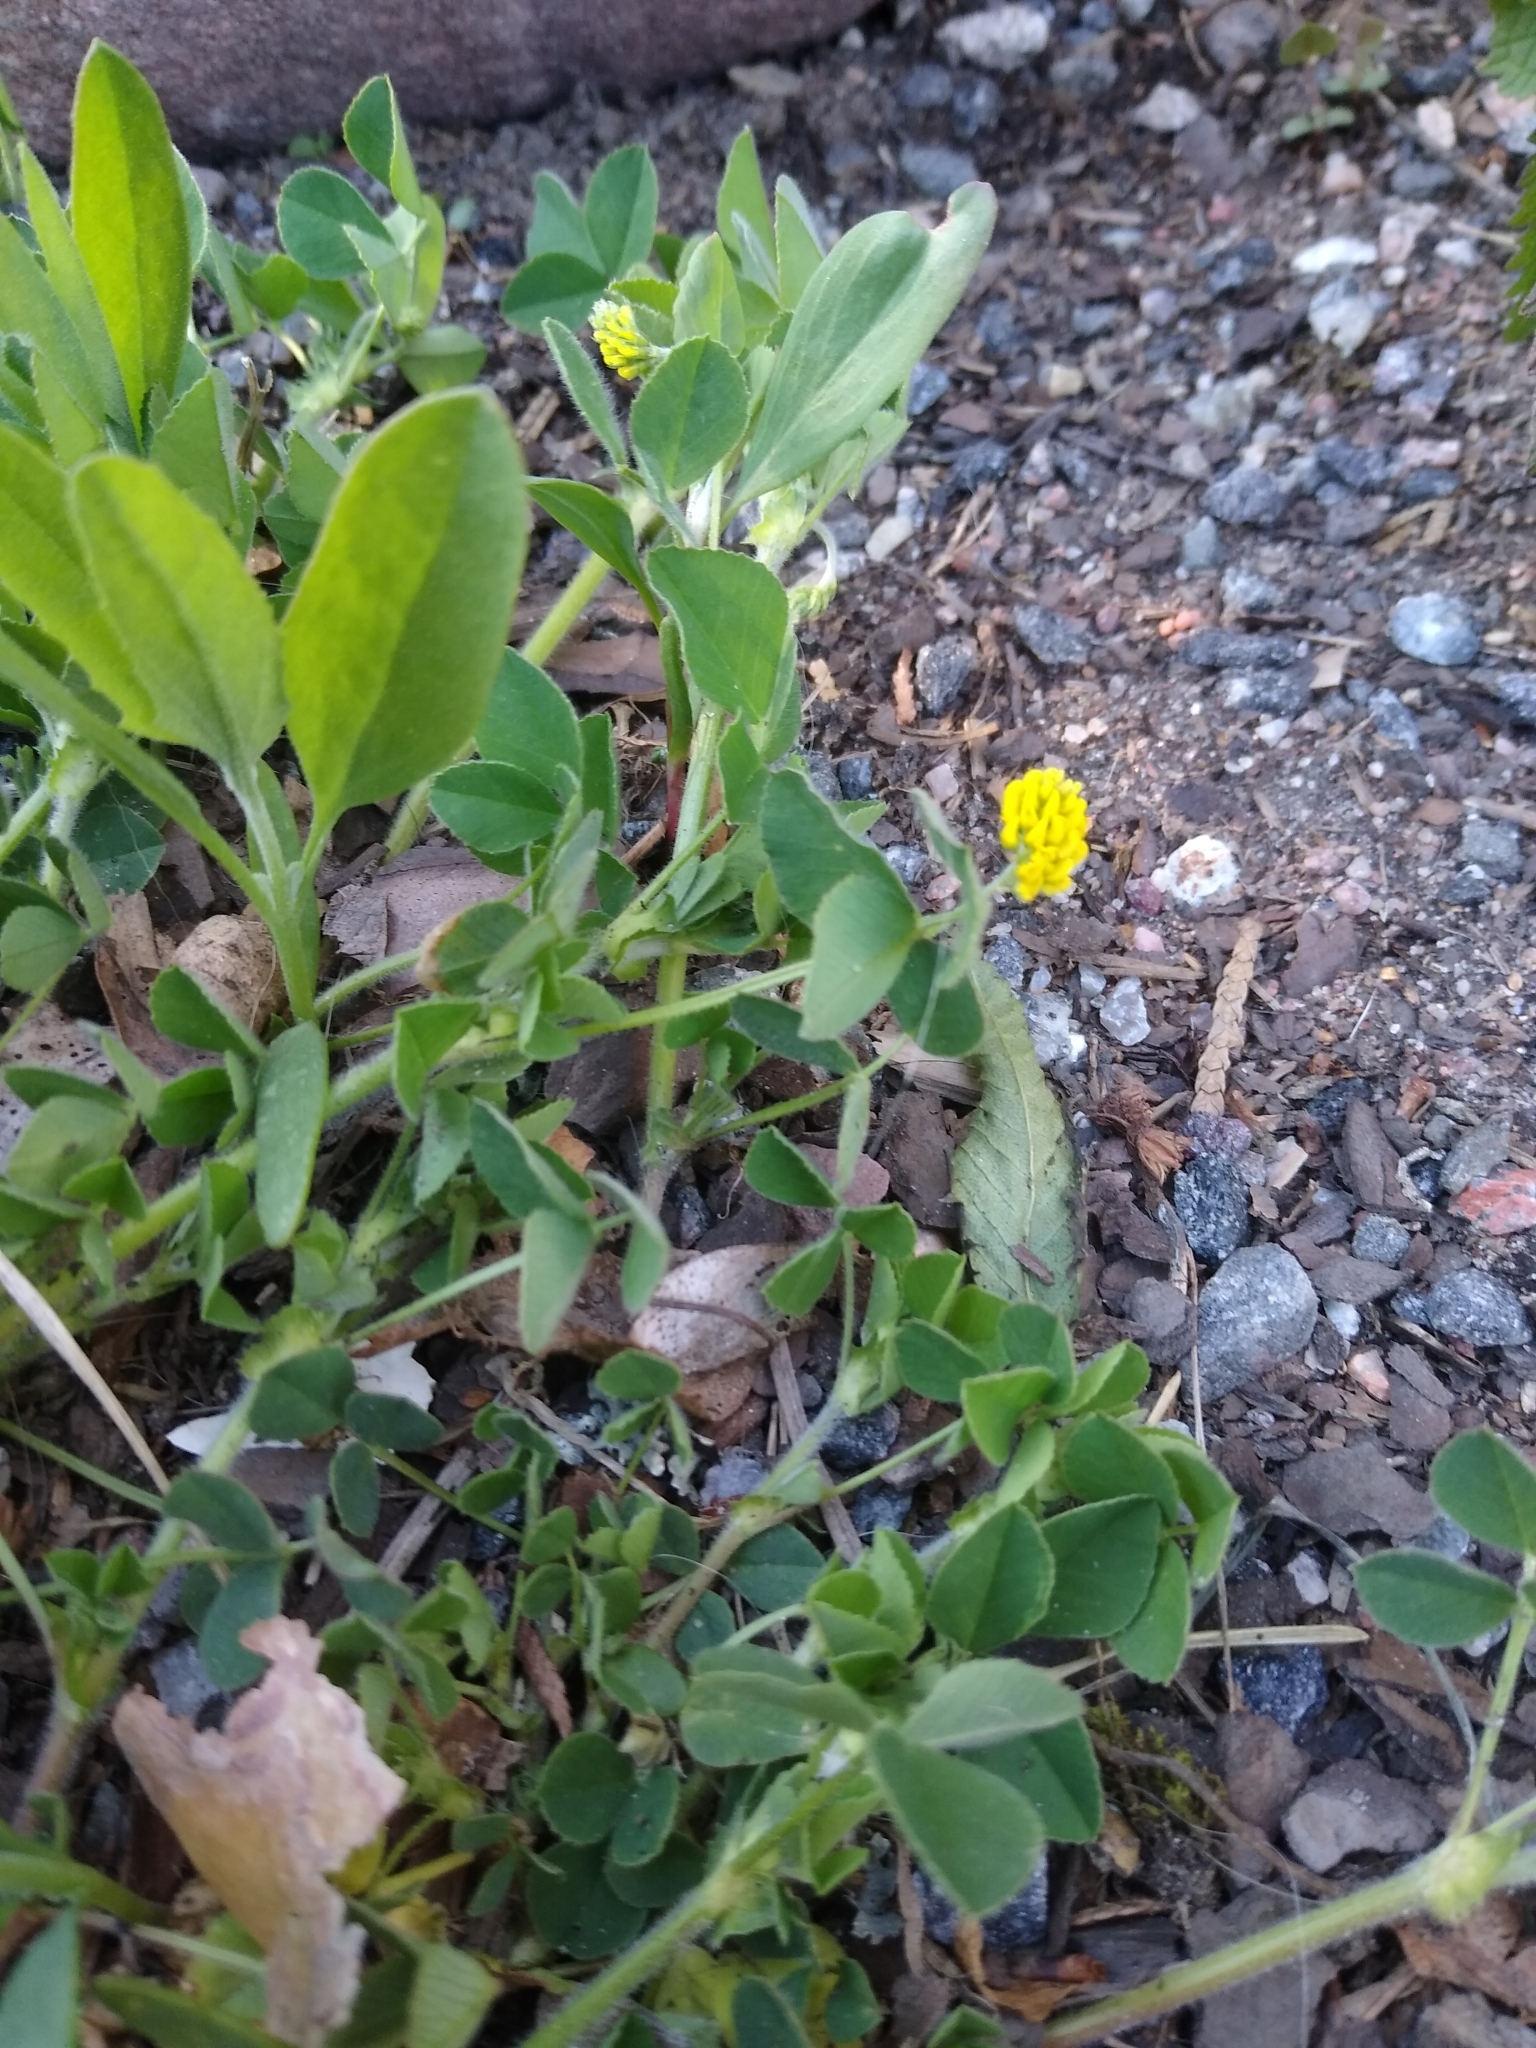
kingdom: Plantae
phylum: Tracheophyta
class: Magnoliopsida
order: Fabales
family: Fabaceae
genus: Medicago
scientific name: Medicago lupulina
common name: Black medick
